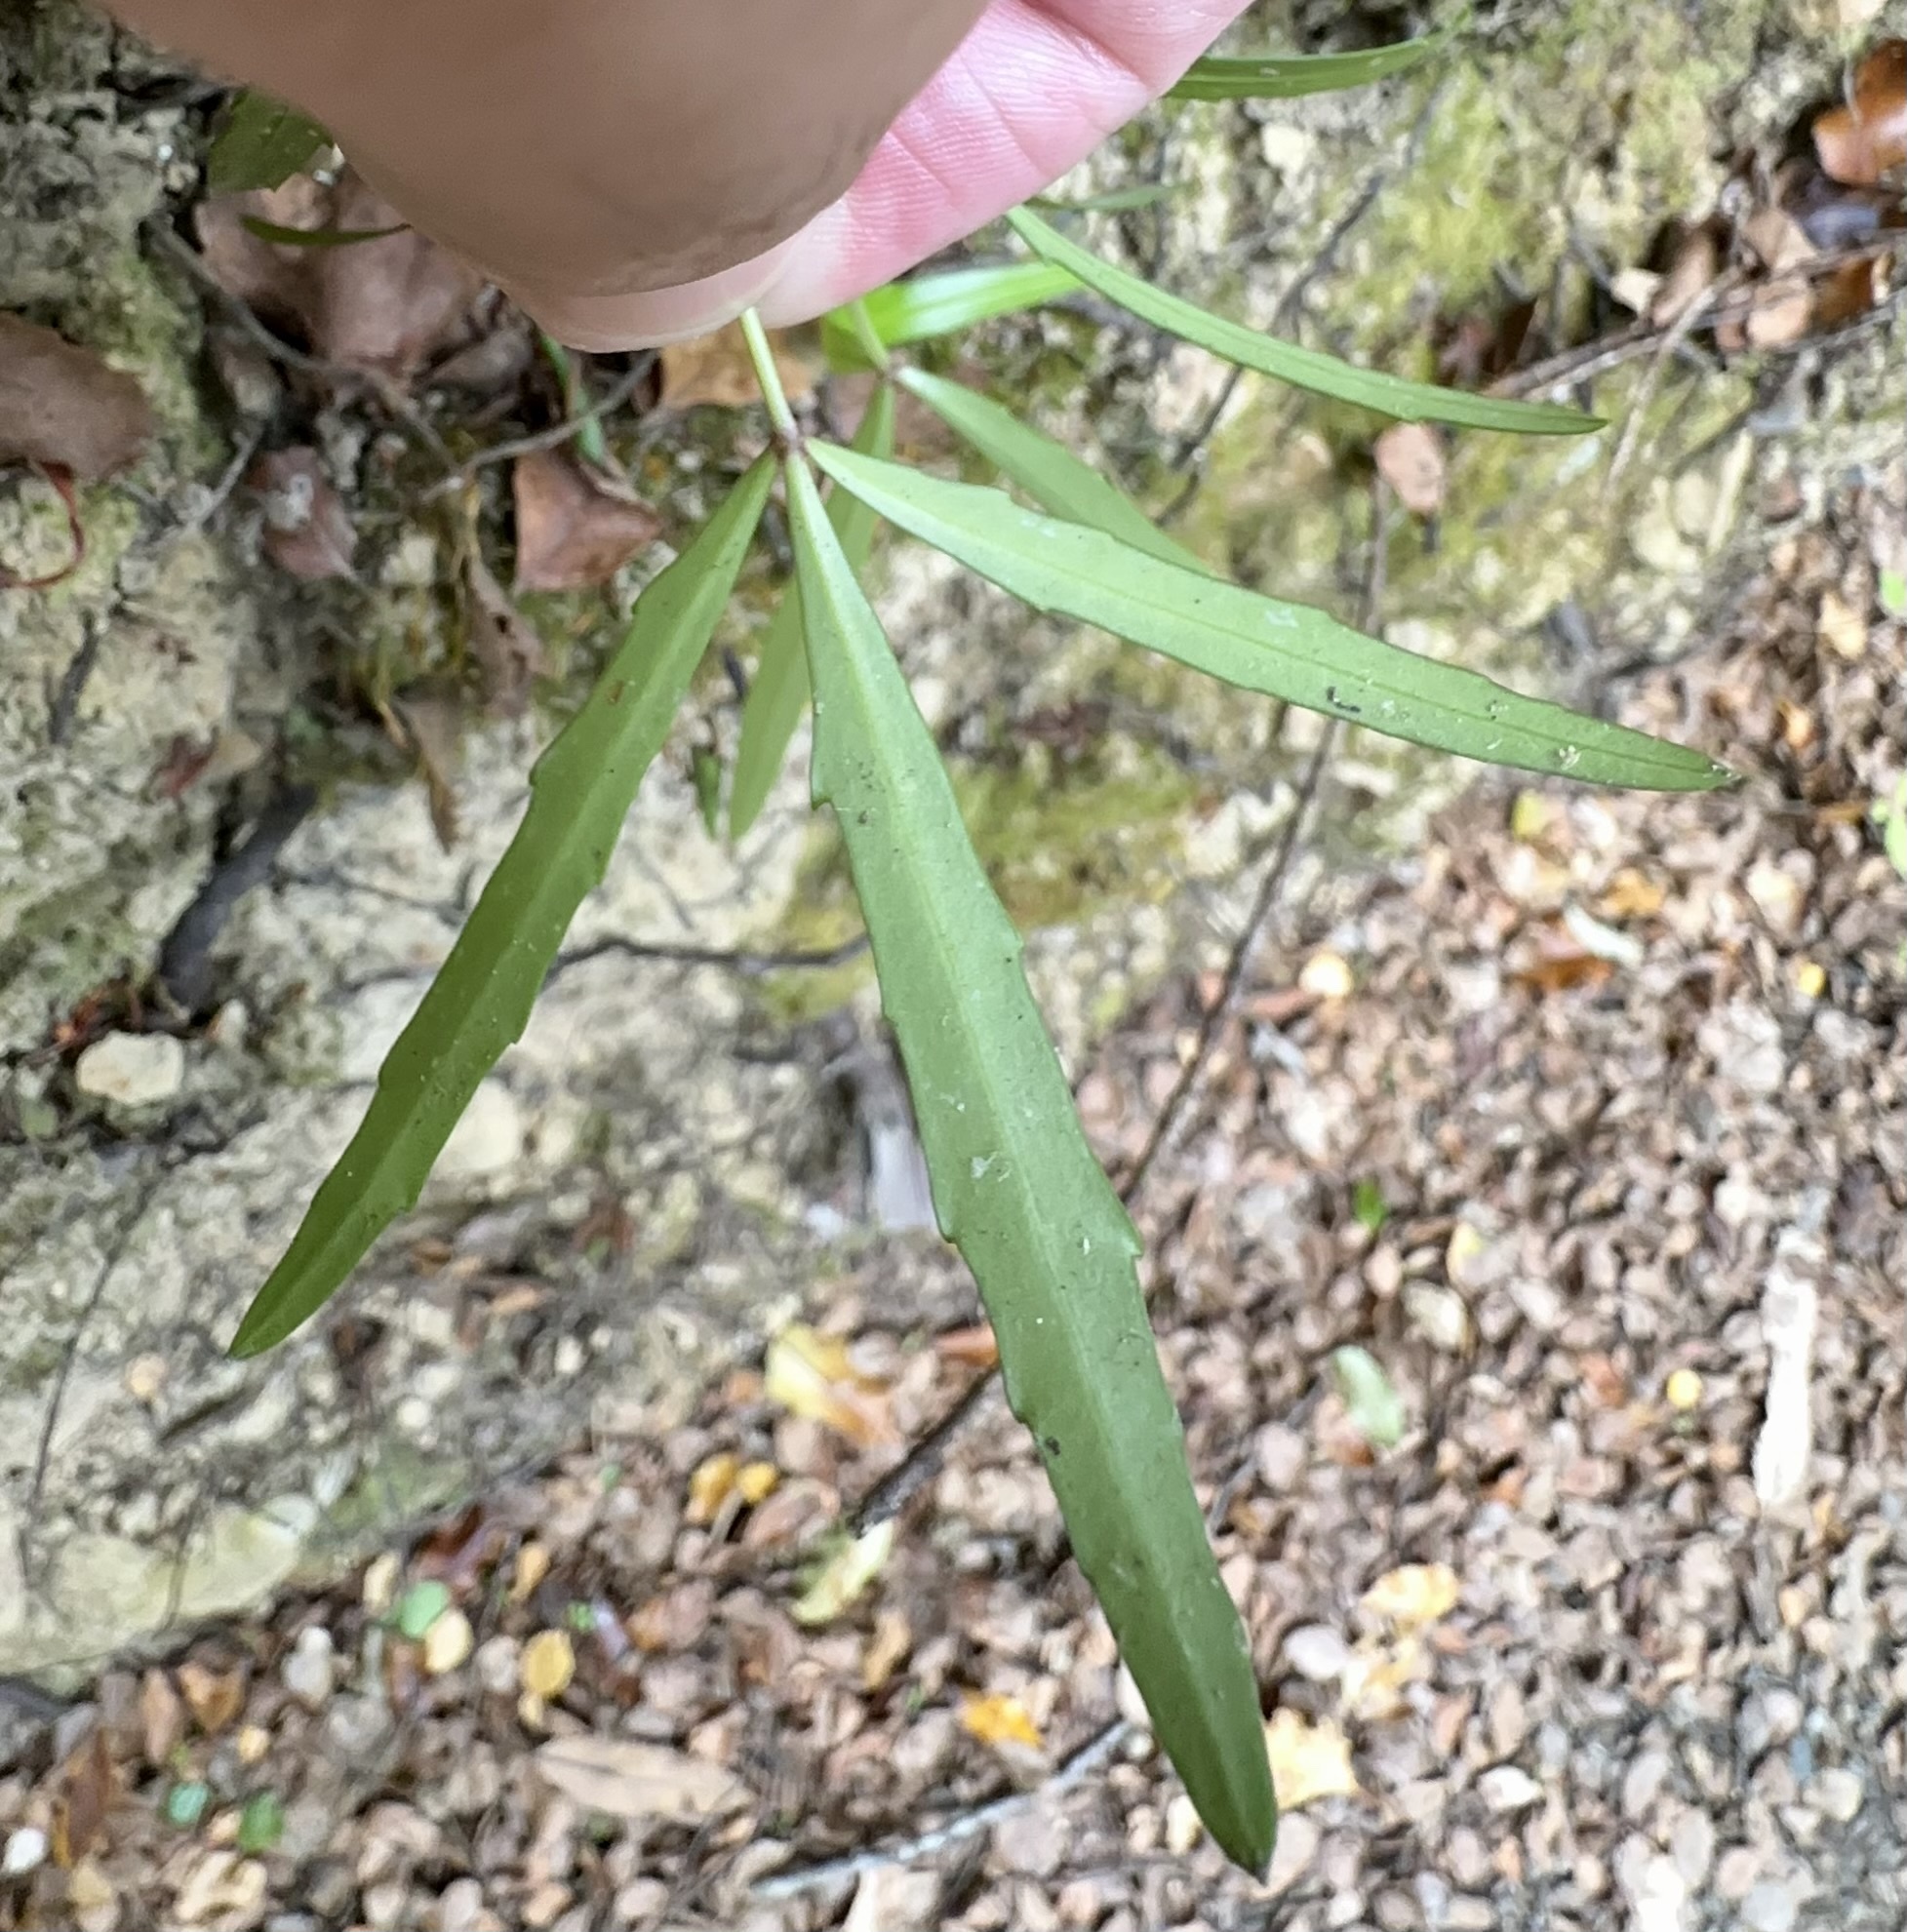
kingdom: Plantae
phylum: Tracheophyta
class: Magnoliopsida
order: Apiales
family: Araliaceae
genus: Pseudopanax
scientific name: Pseudopanax
